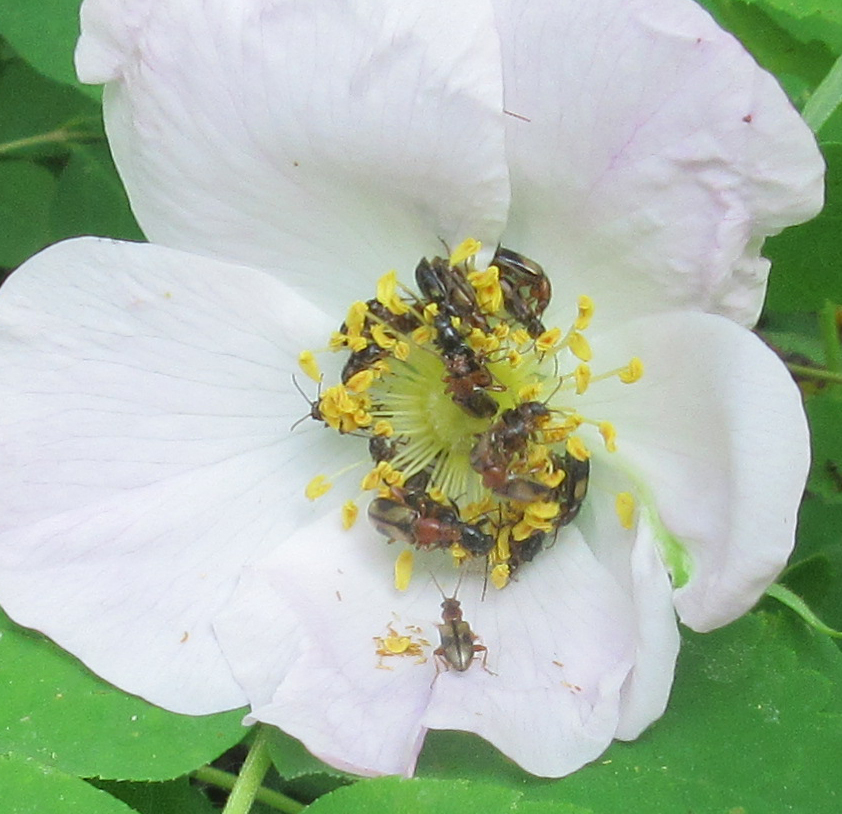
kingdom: Animalia
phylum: Arthropoda
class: Insecta
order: Coleoptera
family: Orsodacnidae
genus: Orsodacne
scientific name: Orsodacne atra
